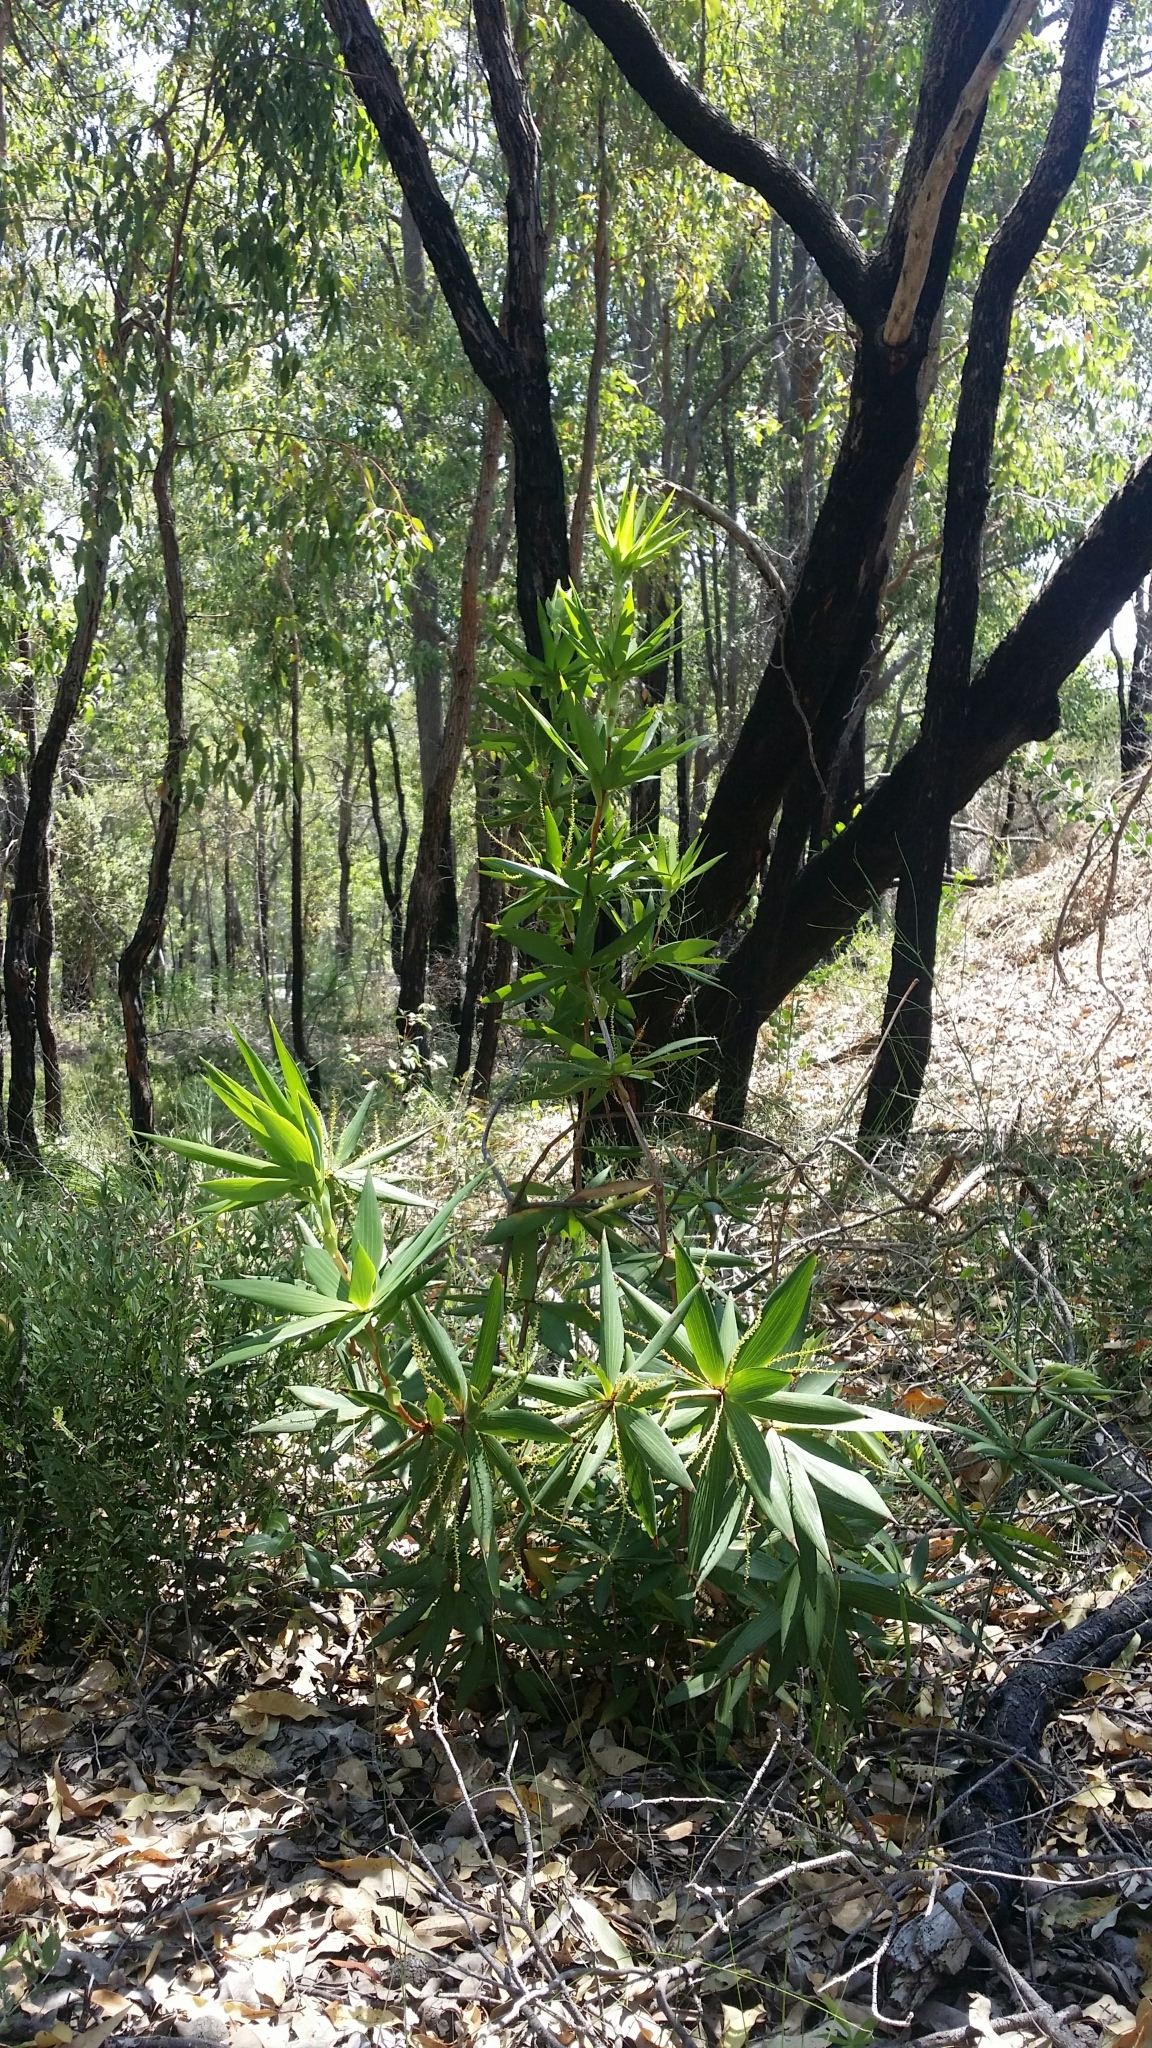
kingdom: Plantae
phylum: Tracheophyta
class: Magnoliopsida
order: Ericales
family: Ericaceae
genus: Leucopogon
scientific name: Leucopogon verticillatus
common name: Tasselshrub
